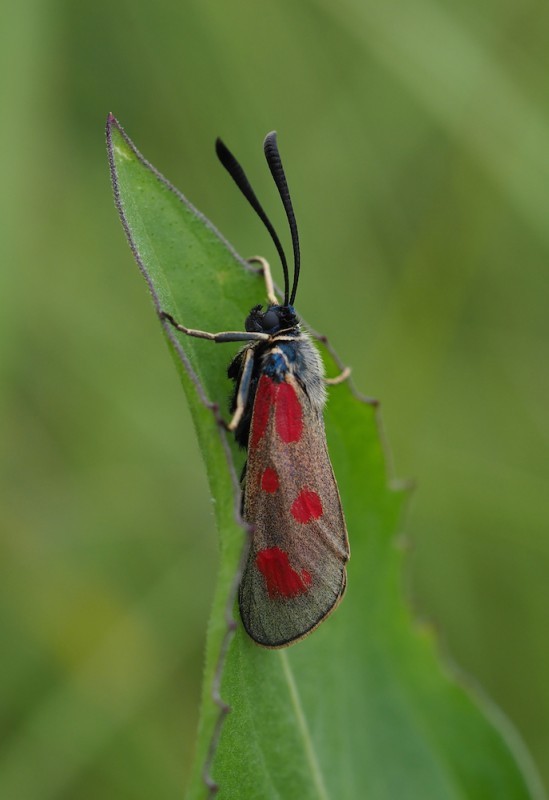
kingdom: Animalia
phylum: Arthropoda
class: Insecta
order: Lepidoptera
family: Zygaenidae
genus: Zygaena
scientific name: Zygaena loti
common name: Slender scotch burnet
